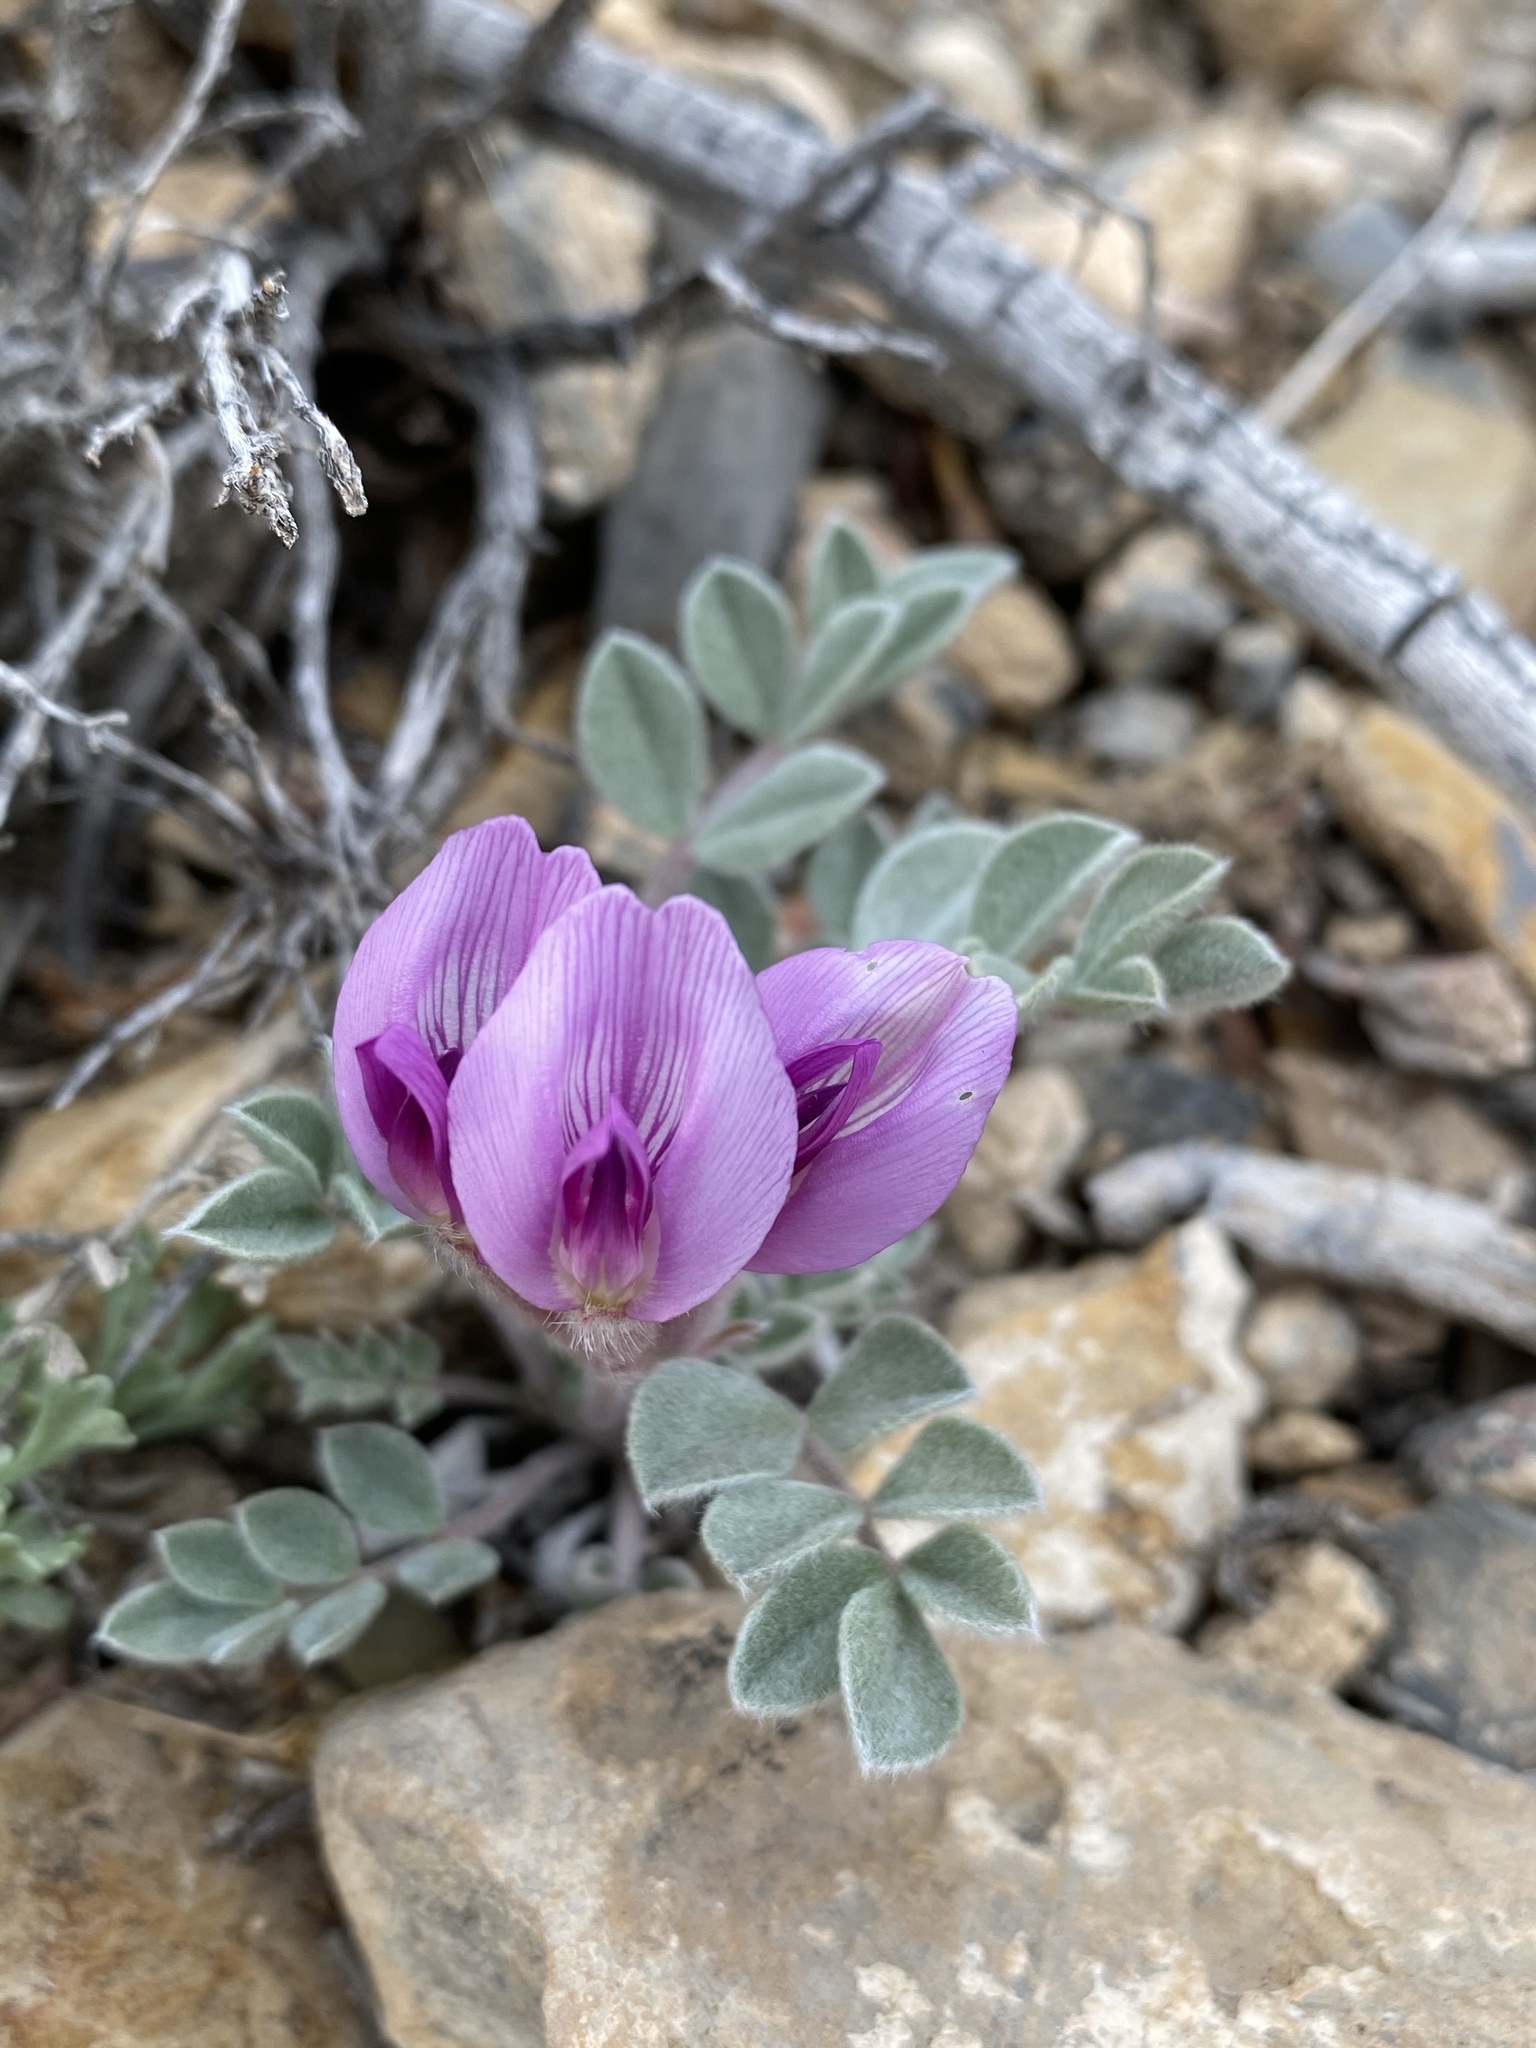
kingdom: Plantae
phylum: Tracheophyta
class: Magnoliopsida
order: Fabales
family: Fabaceae
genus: Astragalus
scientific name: Astragalus newberryi
